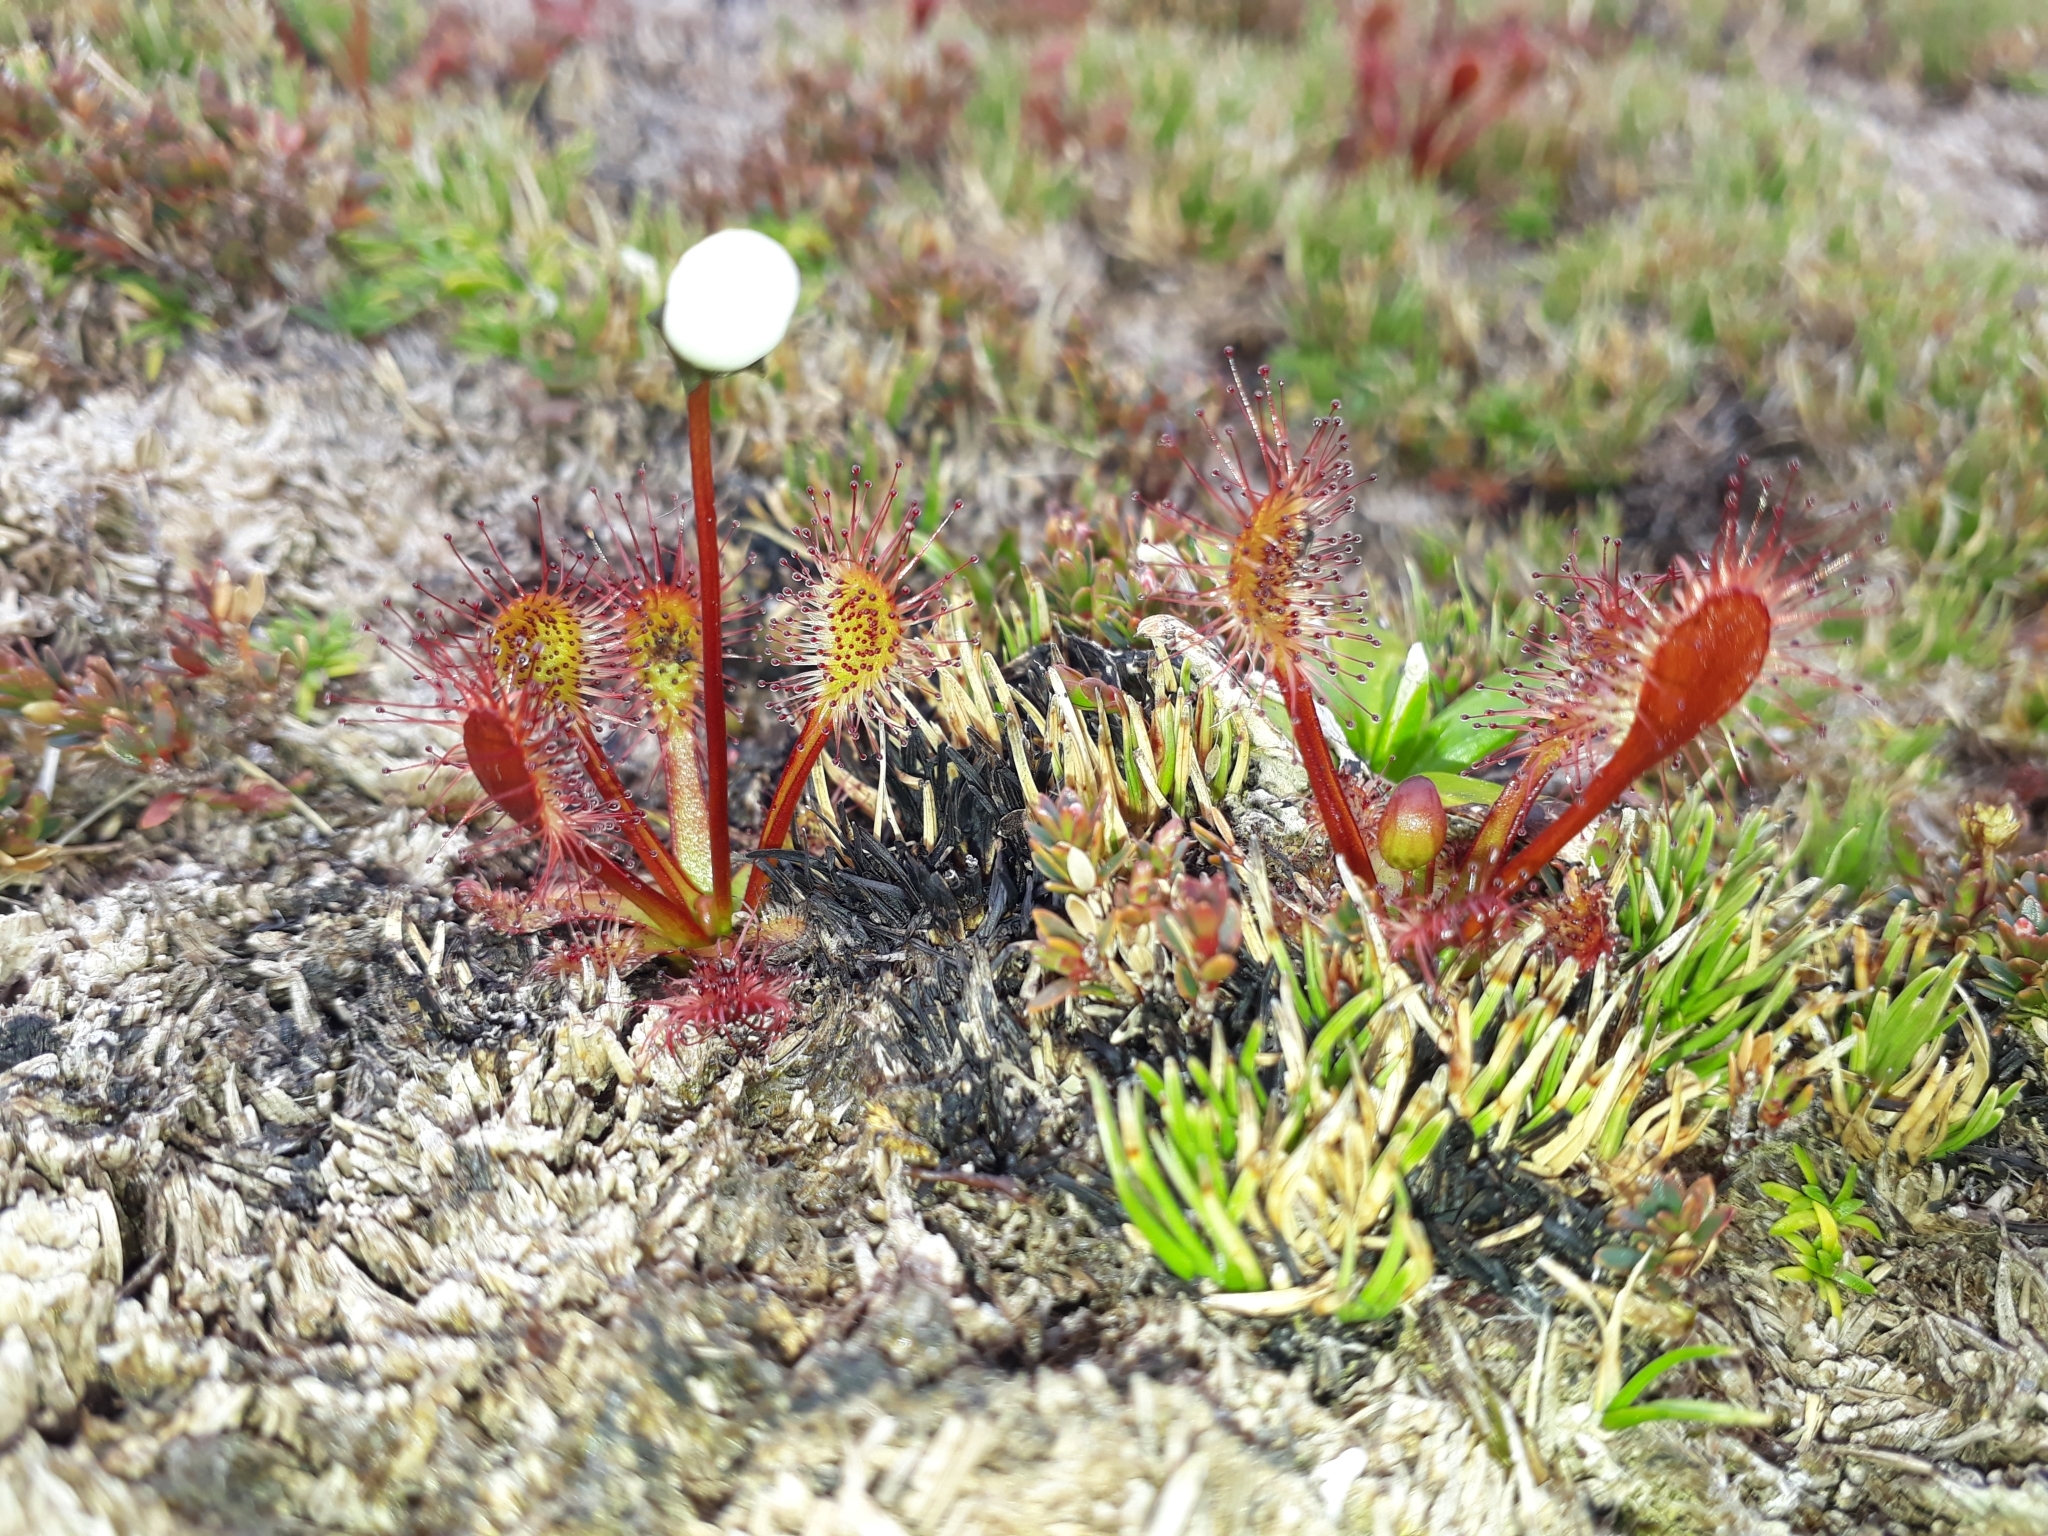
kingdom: Plantae
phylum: Tracheophyta
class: Magnoliopsida
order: Caryophyllales
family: Droseraceae
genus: Drosera
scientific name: Drosera stenopetala
